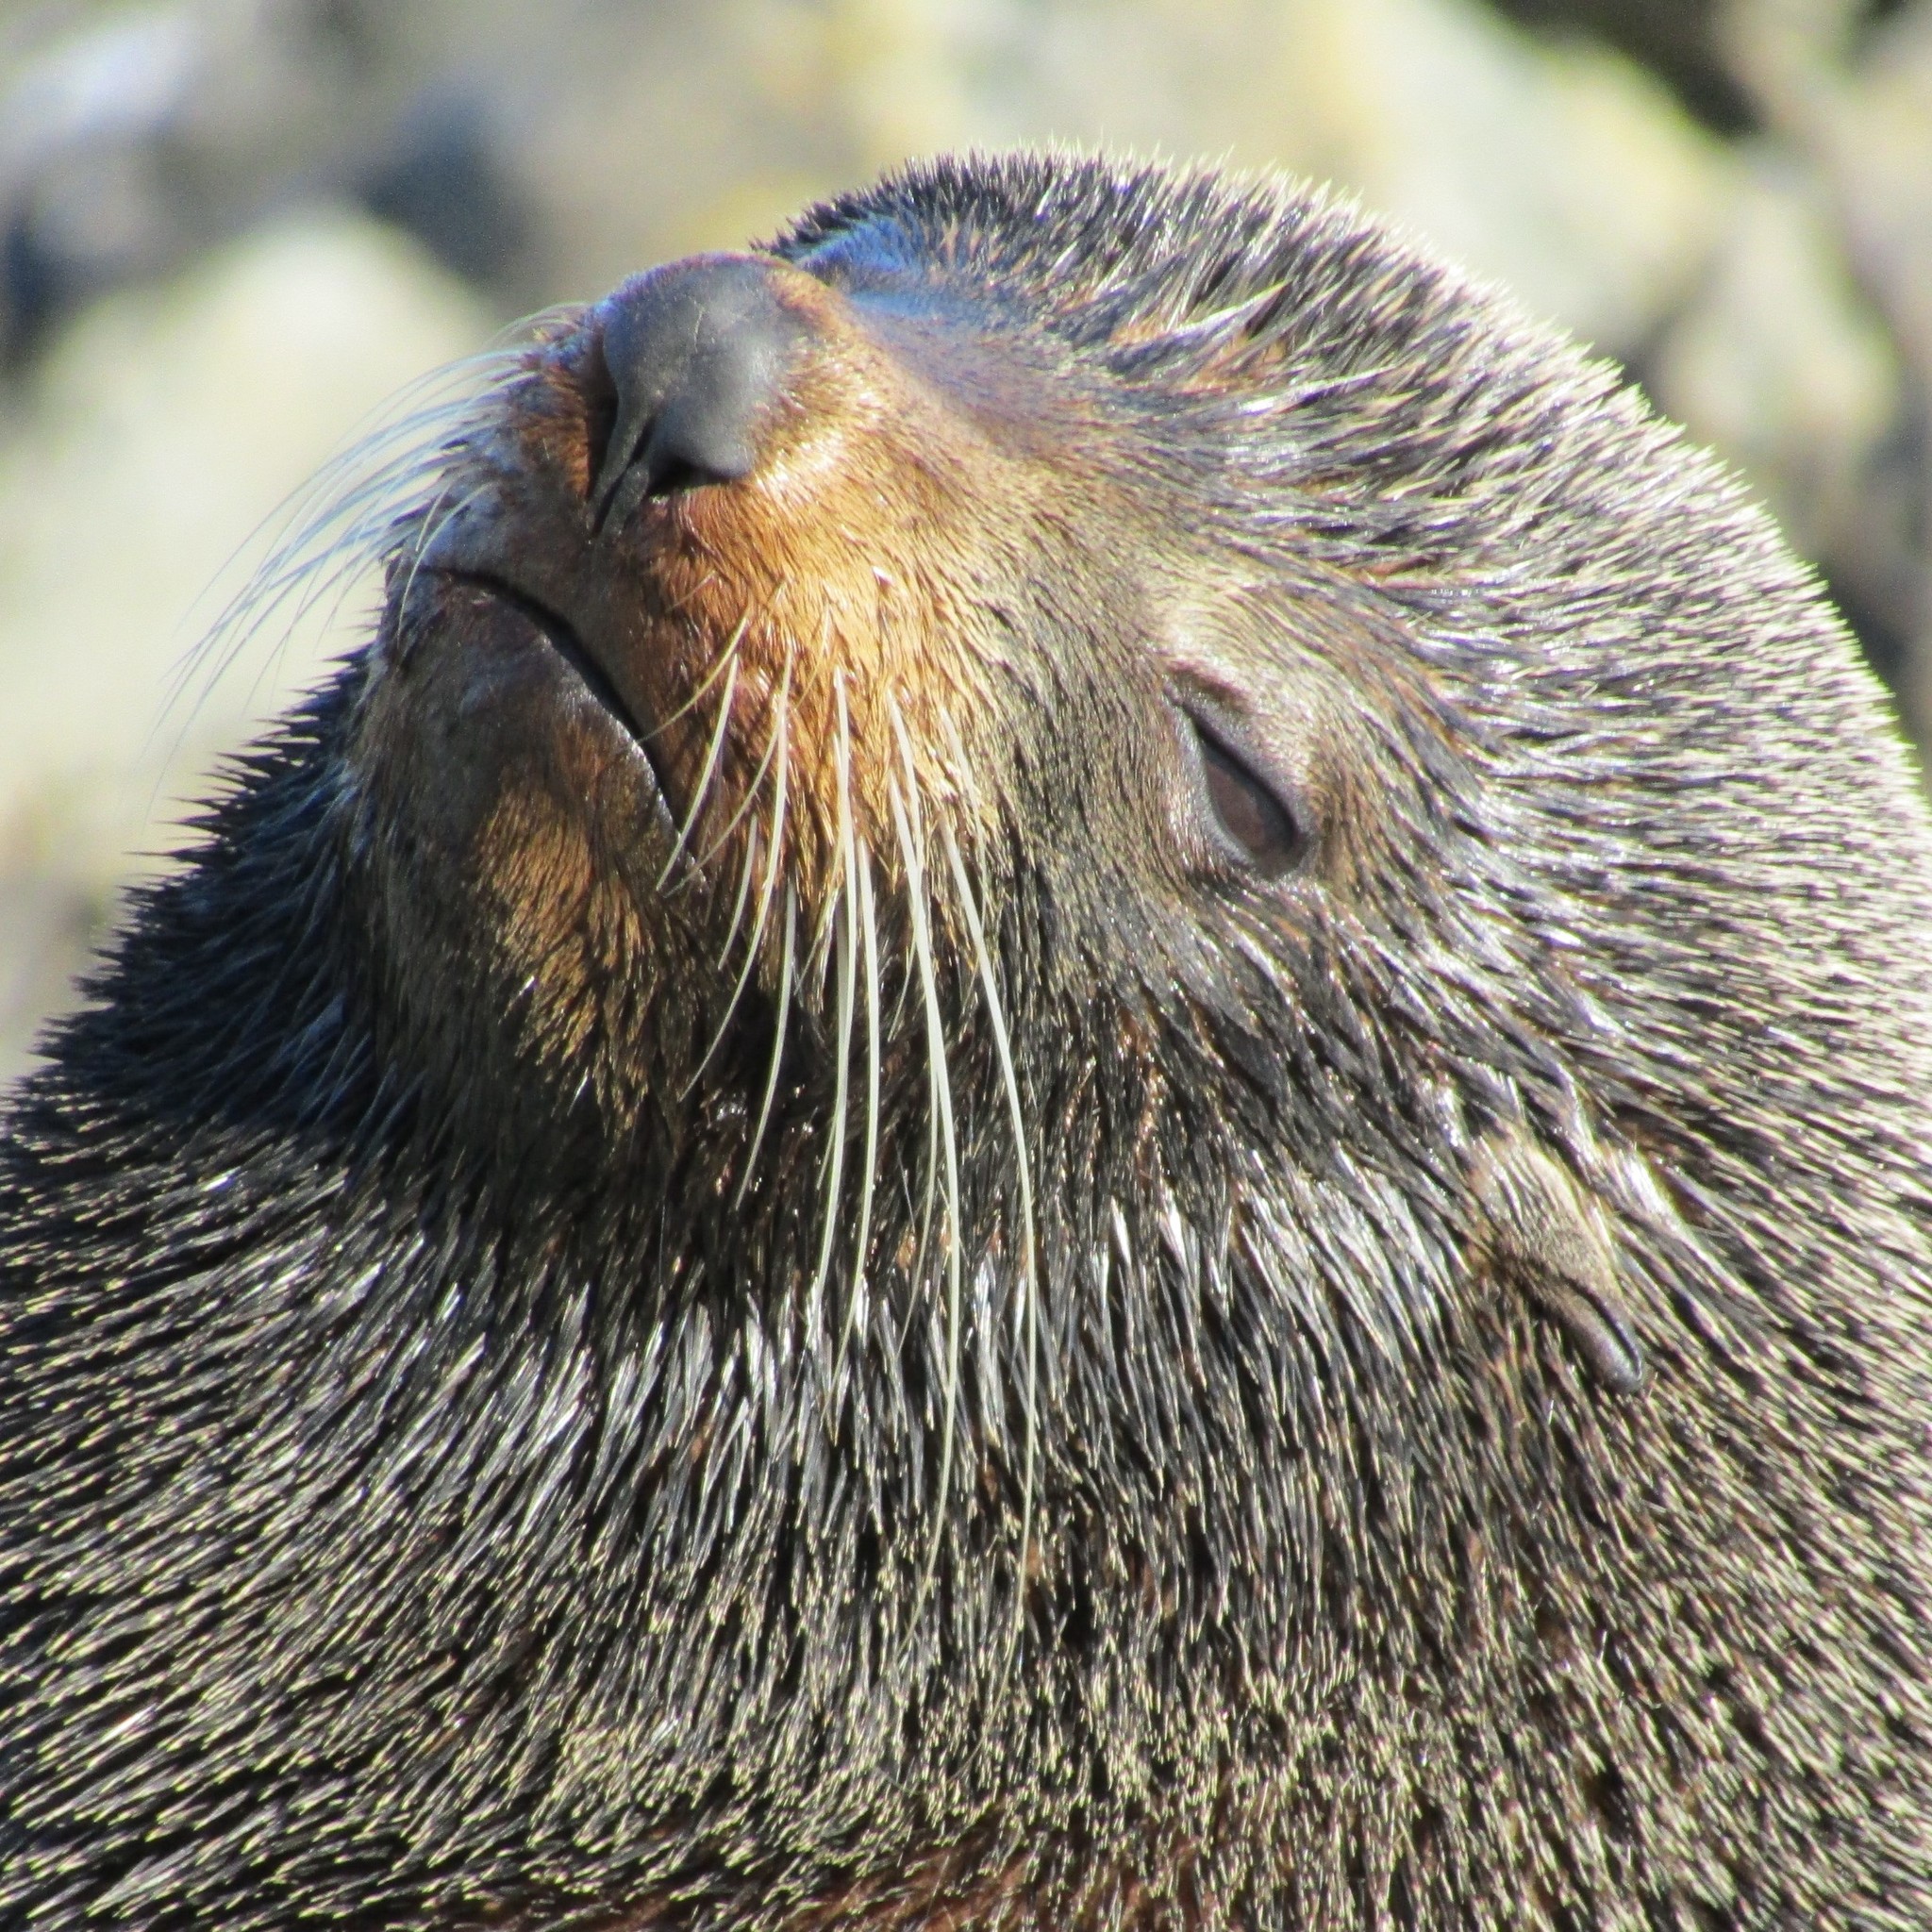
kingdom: Animalia
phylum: Chordata
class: Mammalia
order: Carnivora
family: Otariidae
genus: Arctocephalus
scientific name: Arctocephalus forsteri
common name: New zealand fur seal
